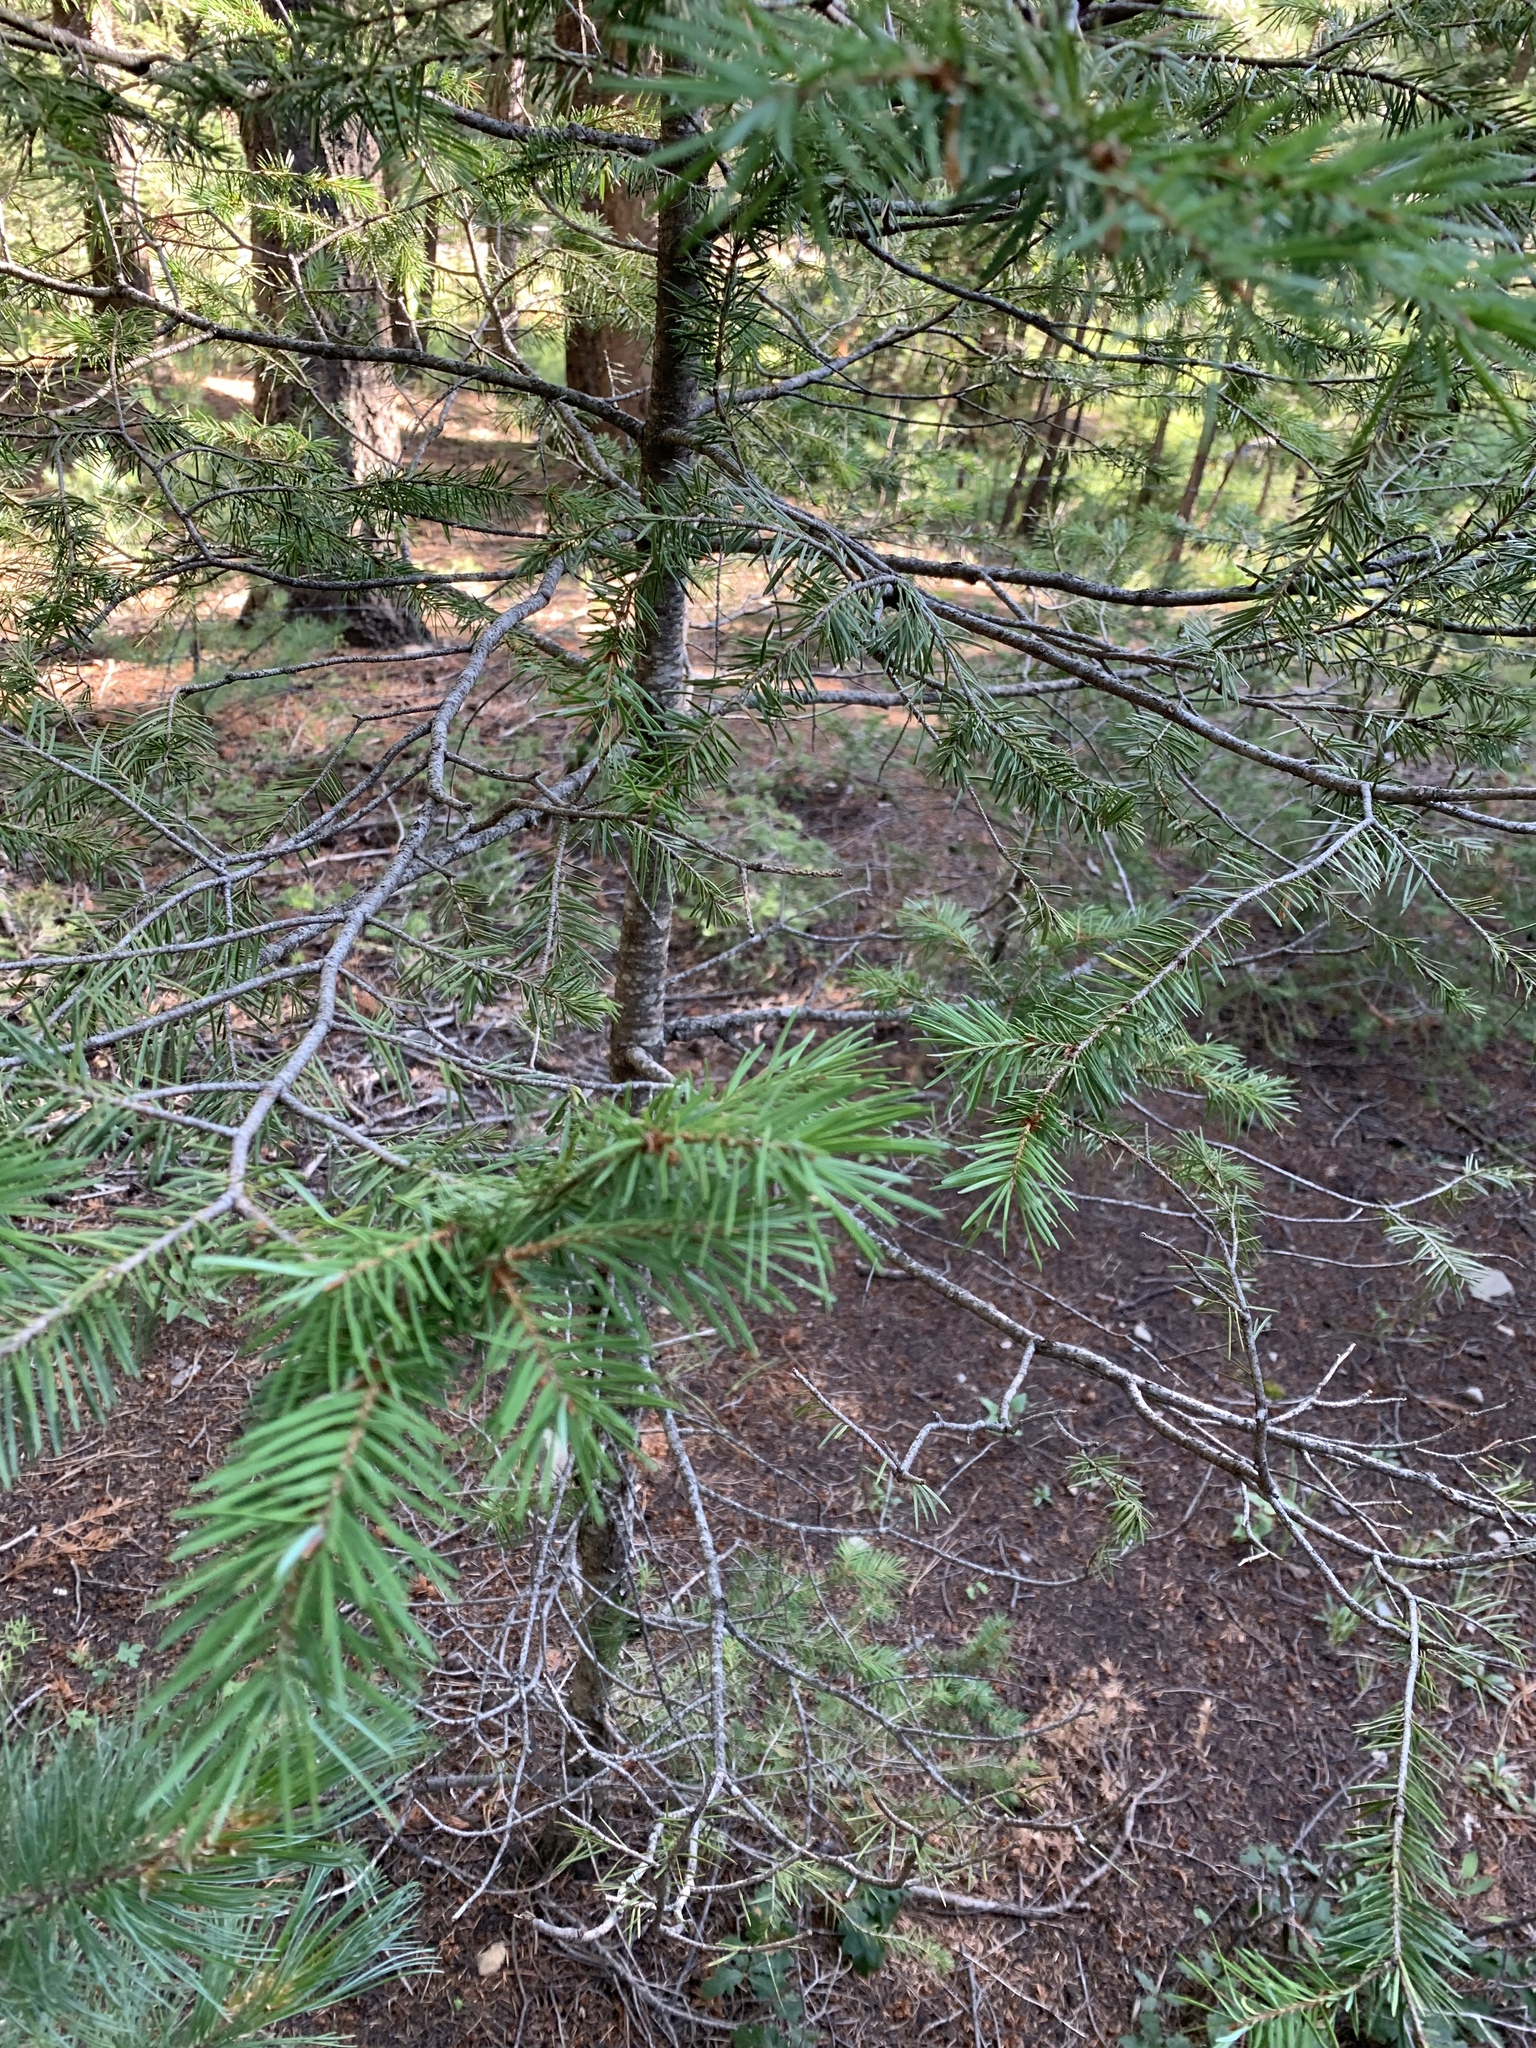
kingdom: Plantae
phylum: Tracheophyta
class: Pinopsida
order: Pinales
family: Pinaceae
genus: Pseudotsuga
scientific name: Pseudotsuga menziesii
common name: Douglas fir
